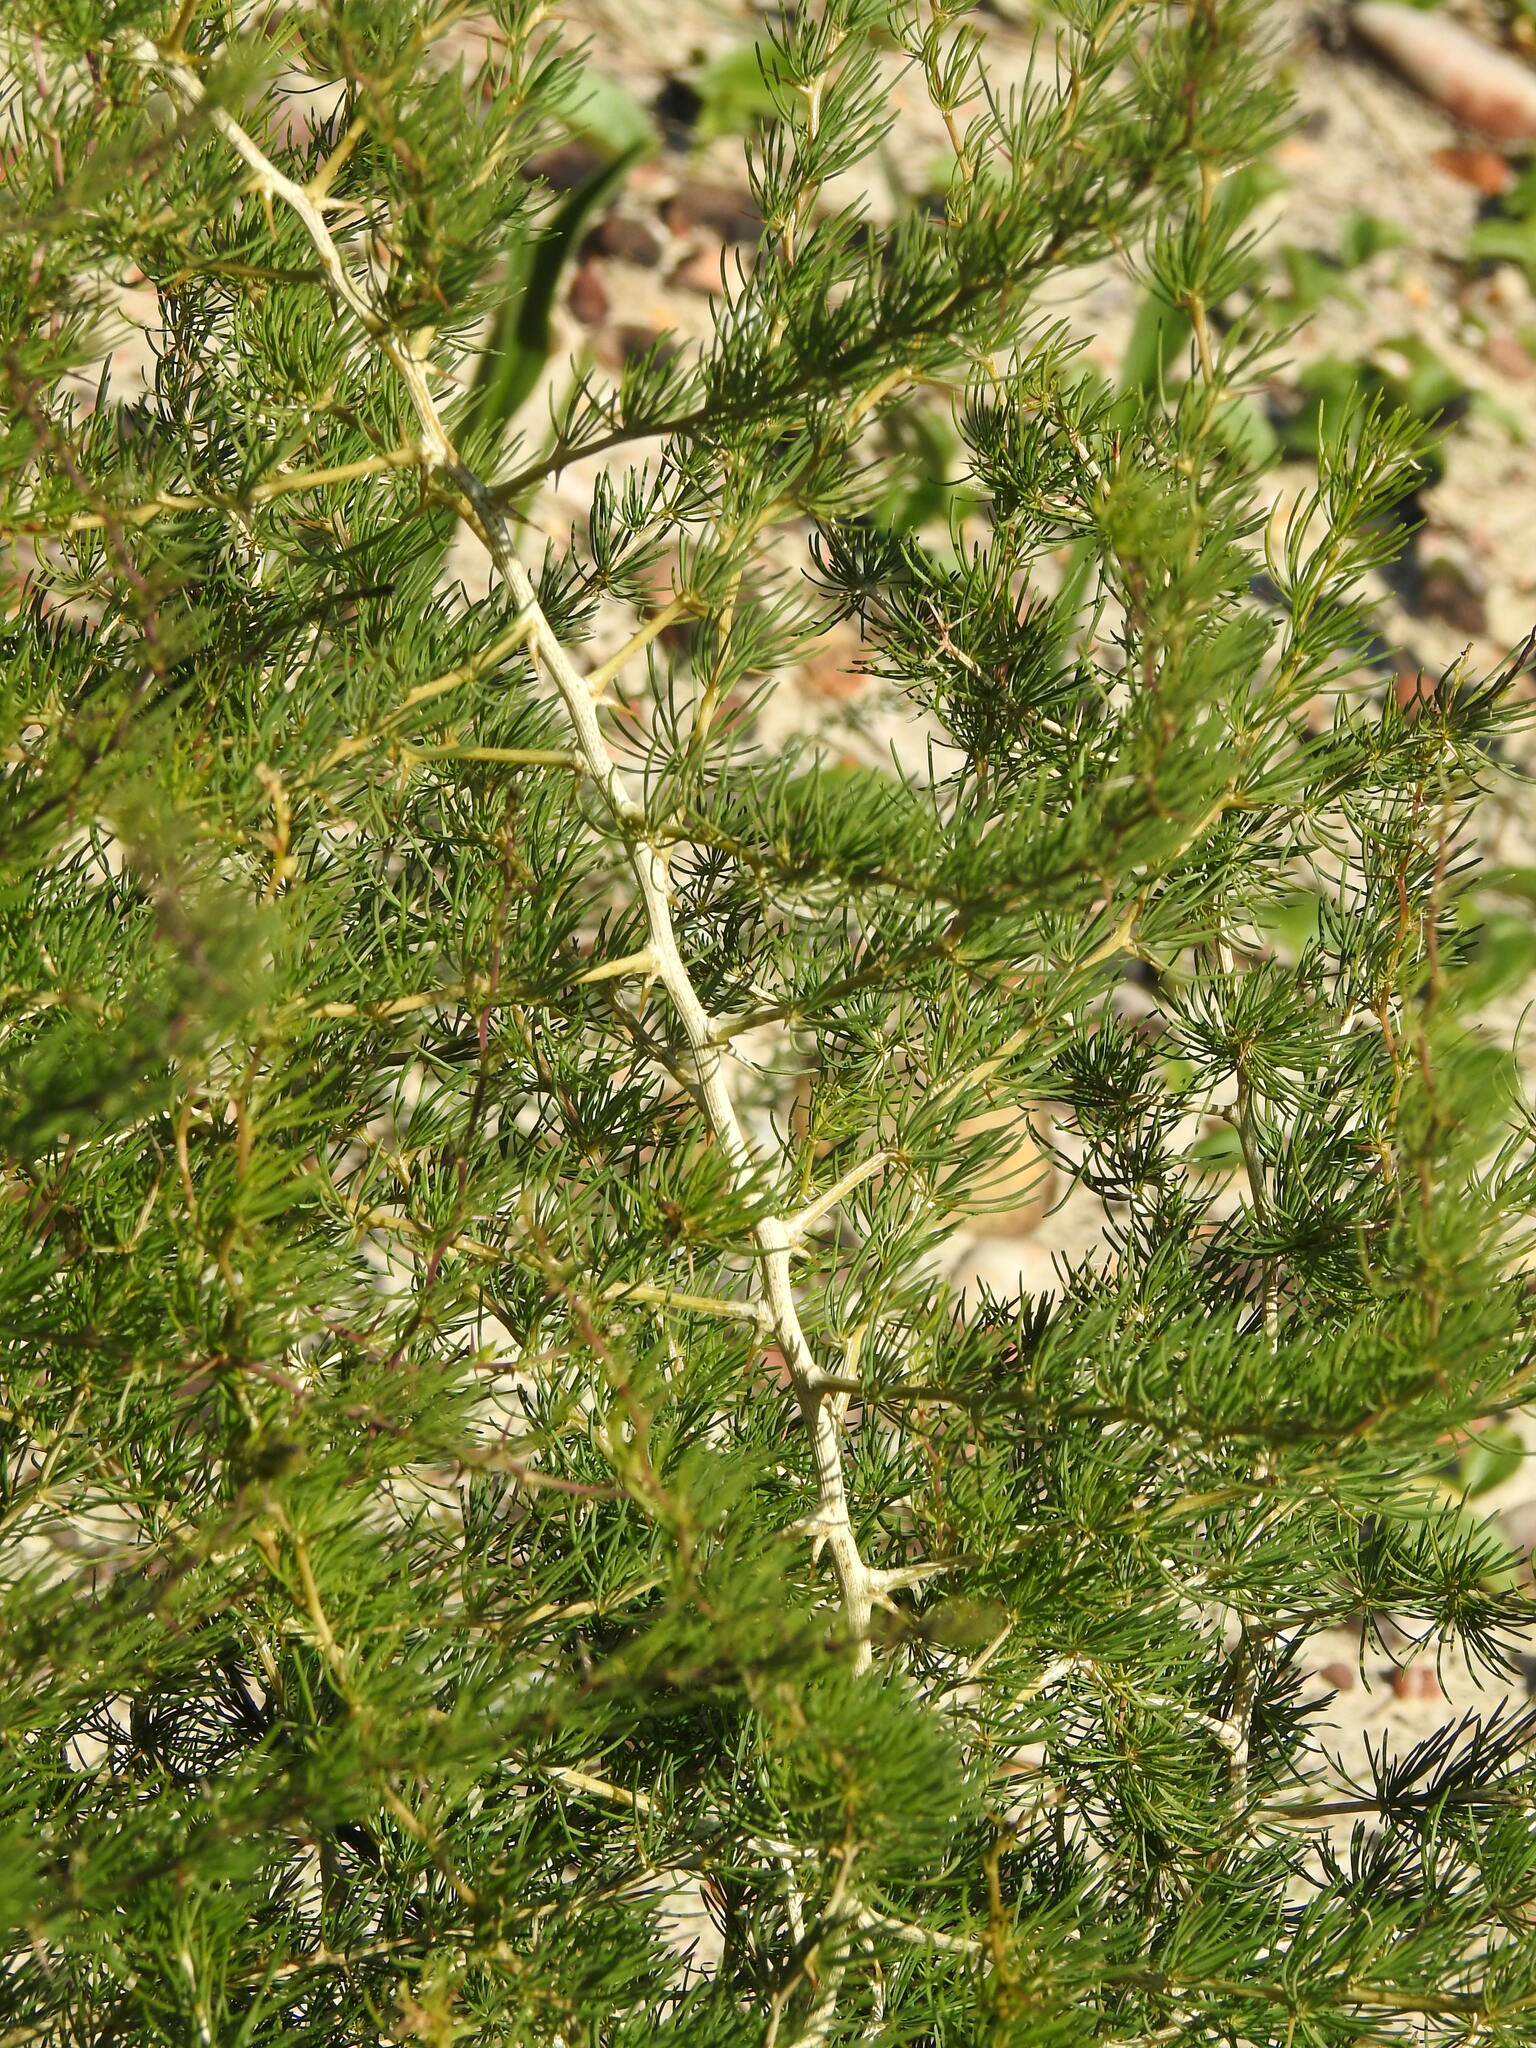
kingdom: Plantae
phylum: Tracheophyta
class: Liliopsida
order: Asparagales
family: Asparagaceae
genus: Asparagus
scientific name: Asparagus albus
